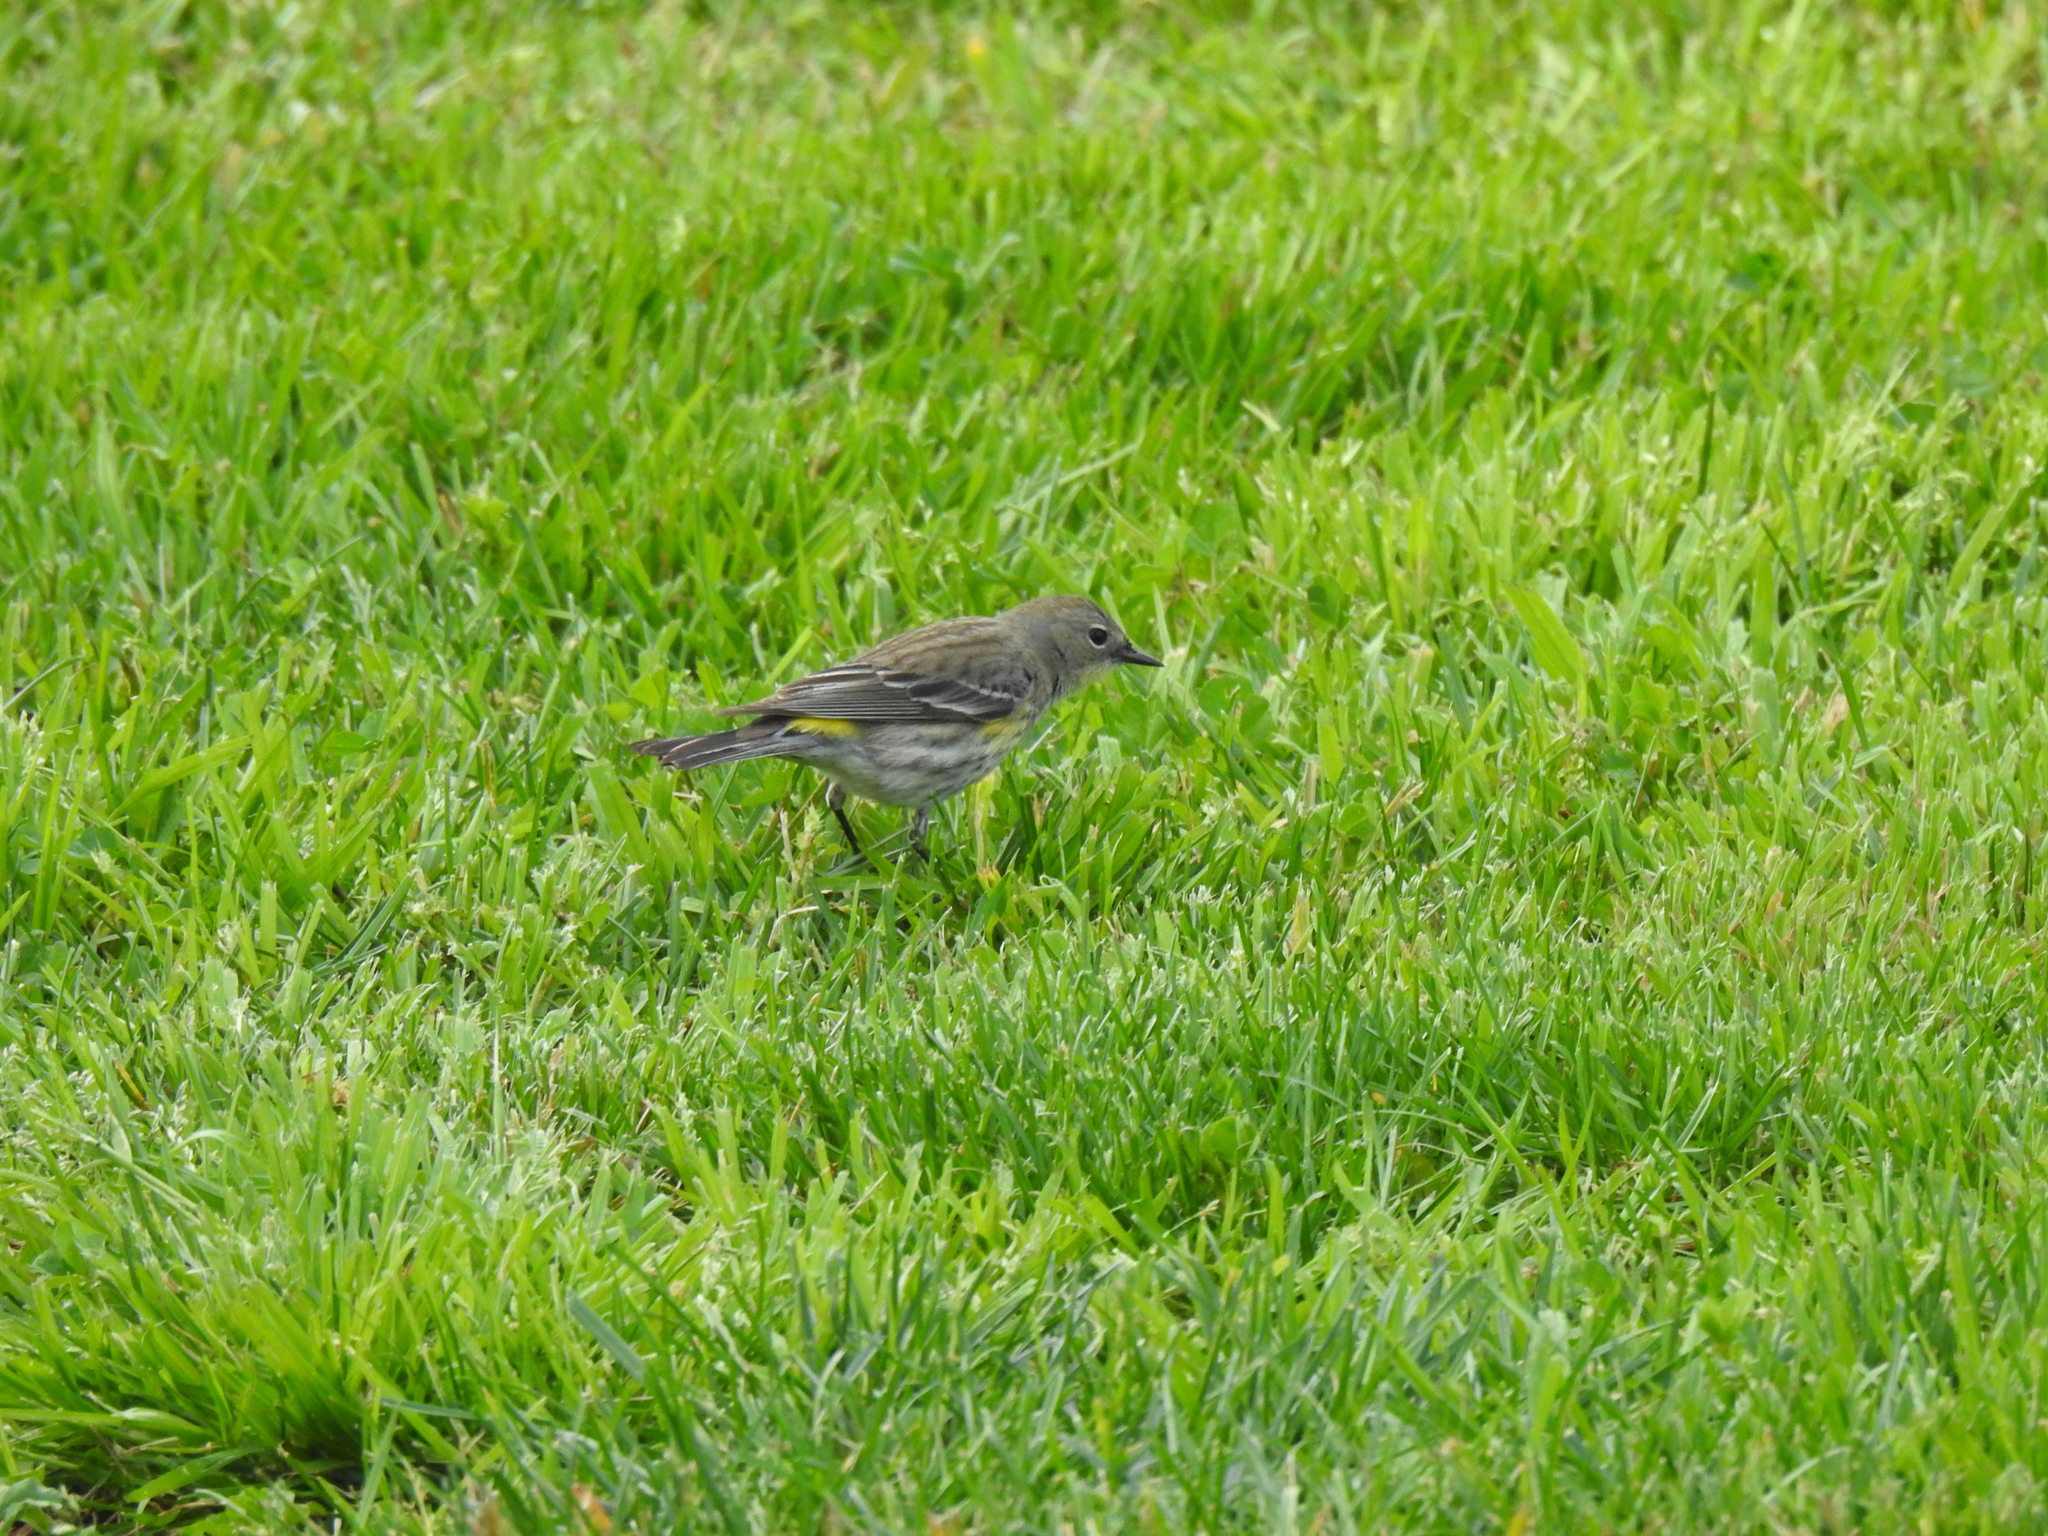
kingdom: Animalia
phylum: Chordata
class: Aves
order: Passeriformes
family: Parulidae
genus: Setophaga
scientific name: Setophaga coronata
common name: Myrtle warbler
